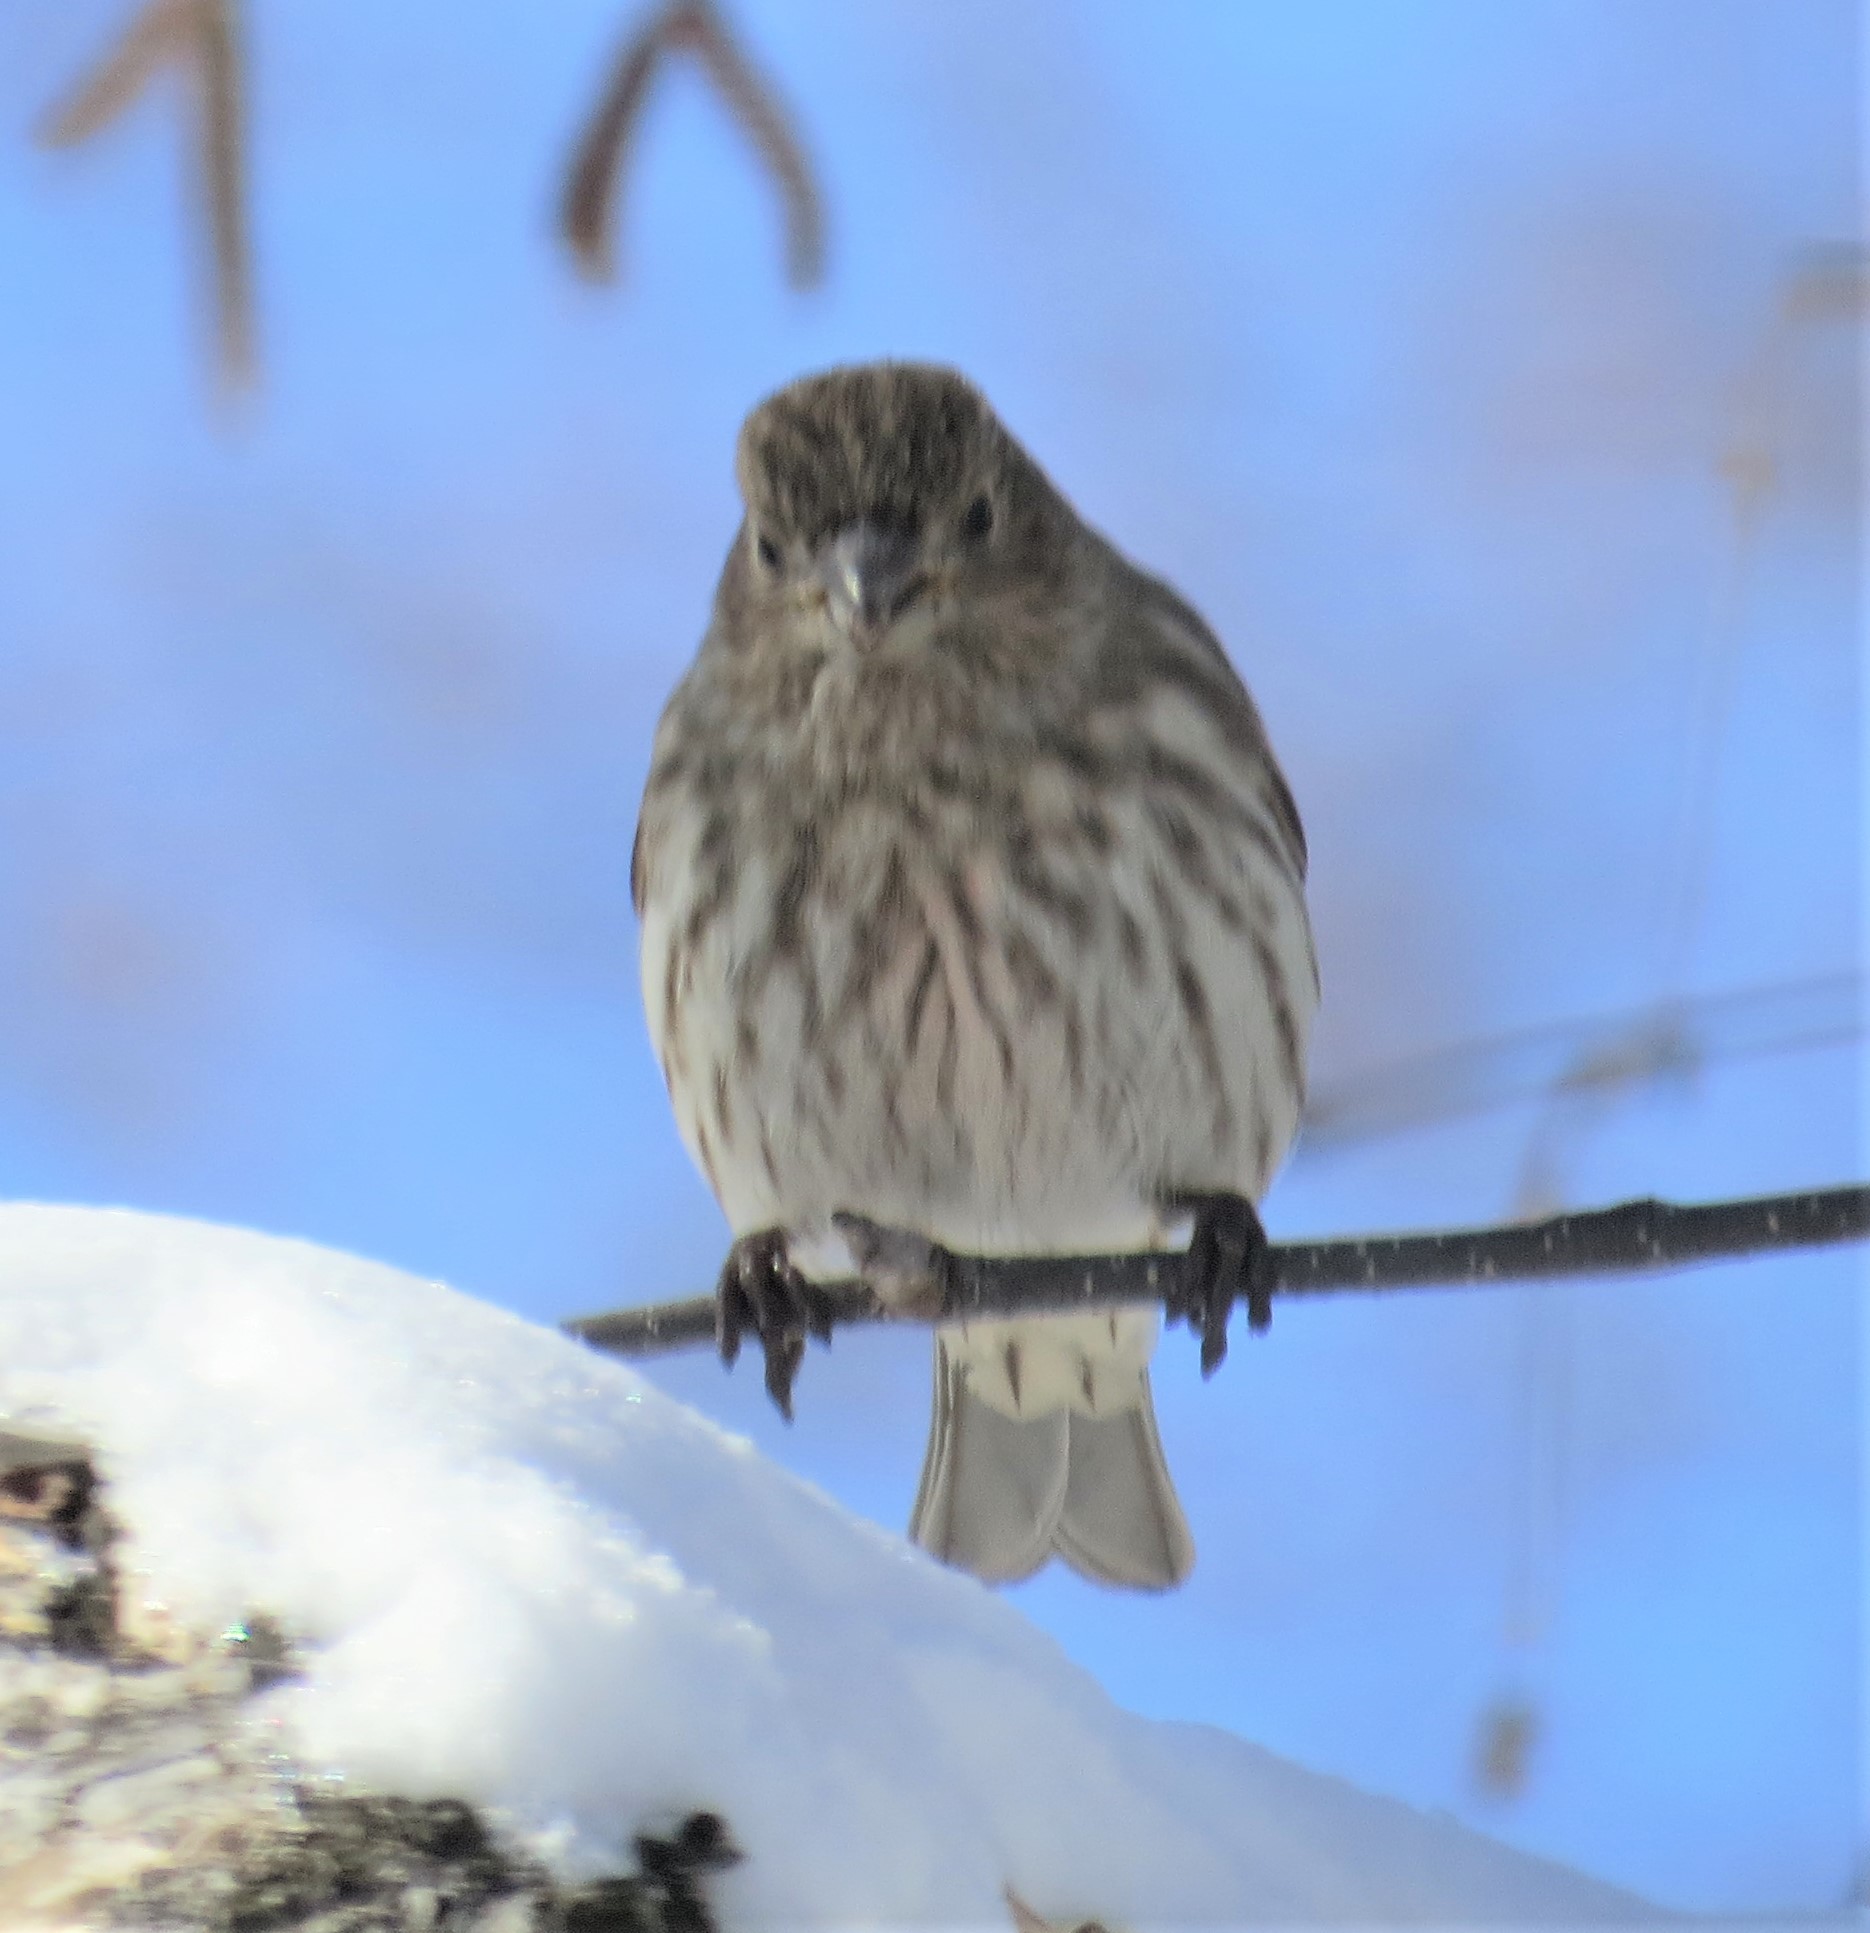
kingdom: Animalia
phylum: Chordata
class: Aves
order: Passeriformes
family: Fringillidae
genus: Haemorhous
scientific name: Haemorhous mexicanus
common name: House finch
